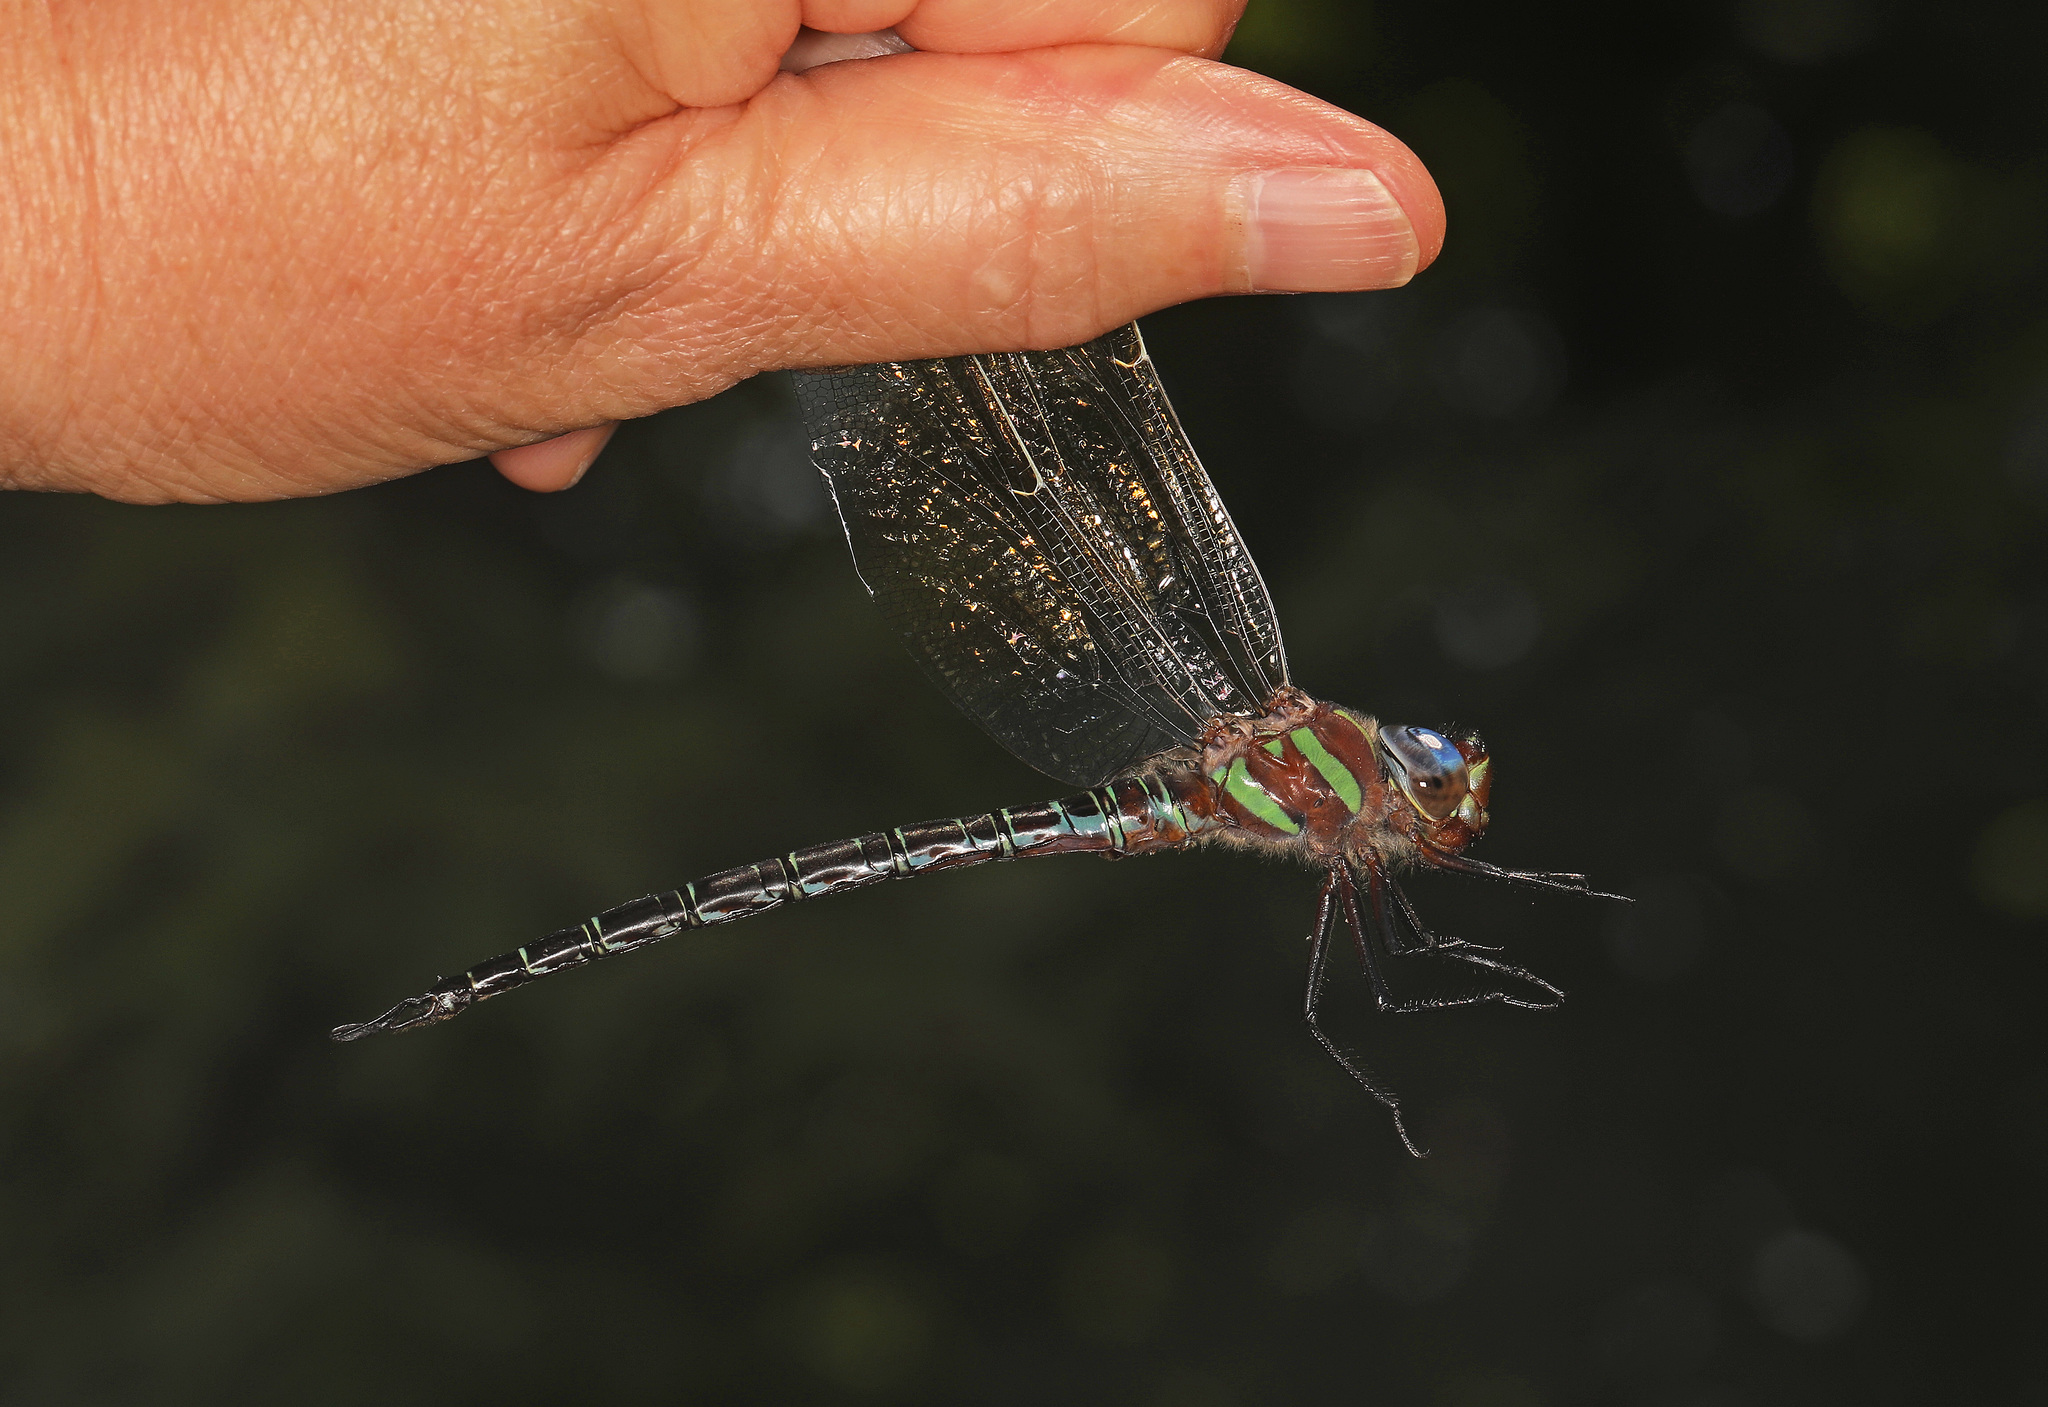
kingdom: Animalia
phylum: Arthropoda
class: Insecta
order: Odonata
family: Aeshnidae
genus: Epiaeschna
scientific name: Epiaeschna heros
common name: Swamp darner
